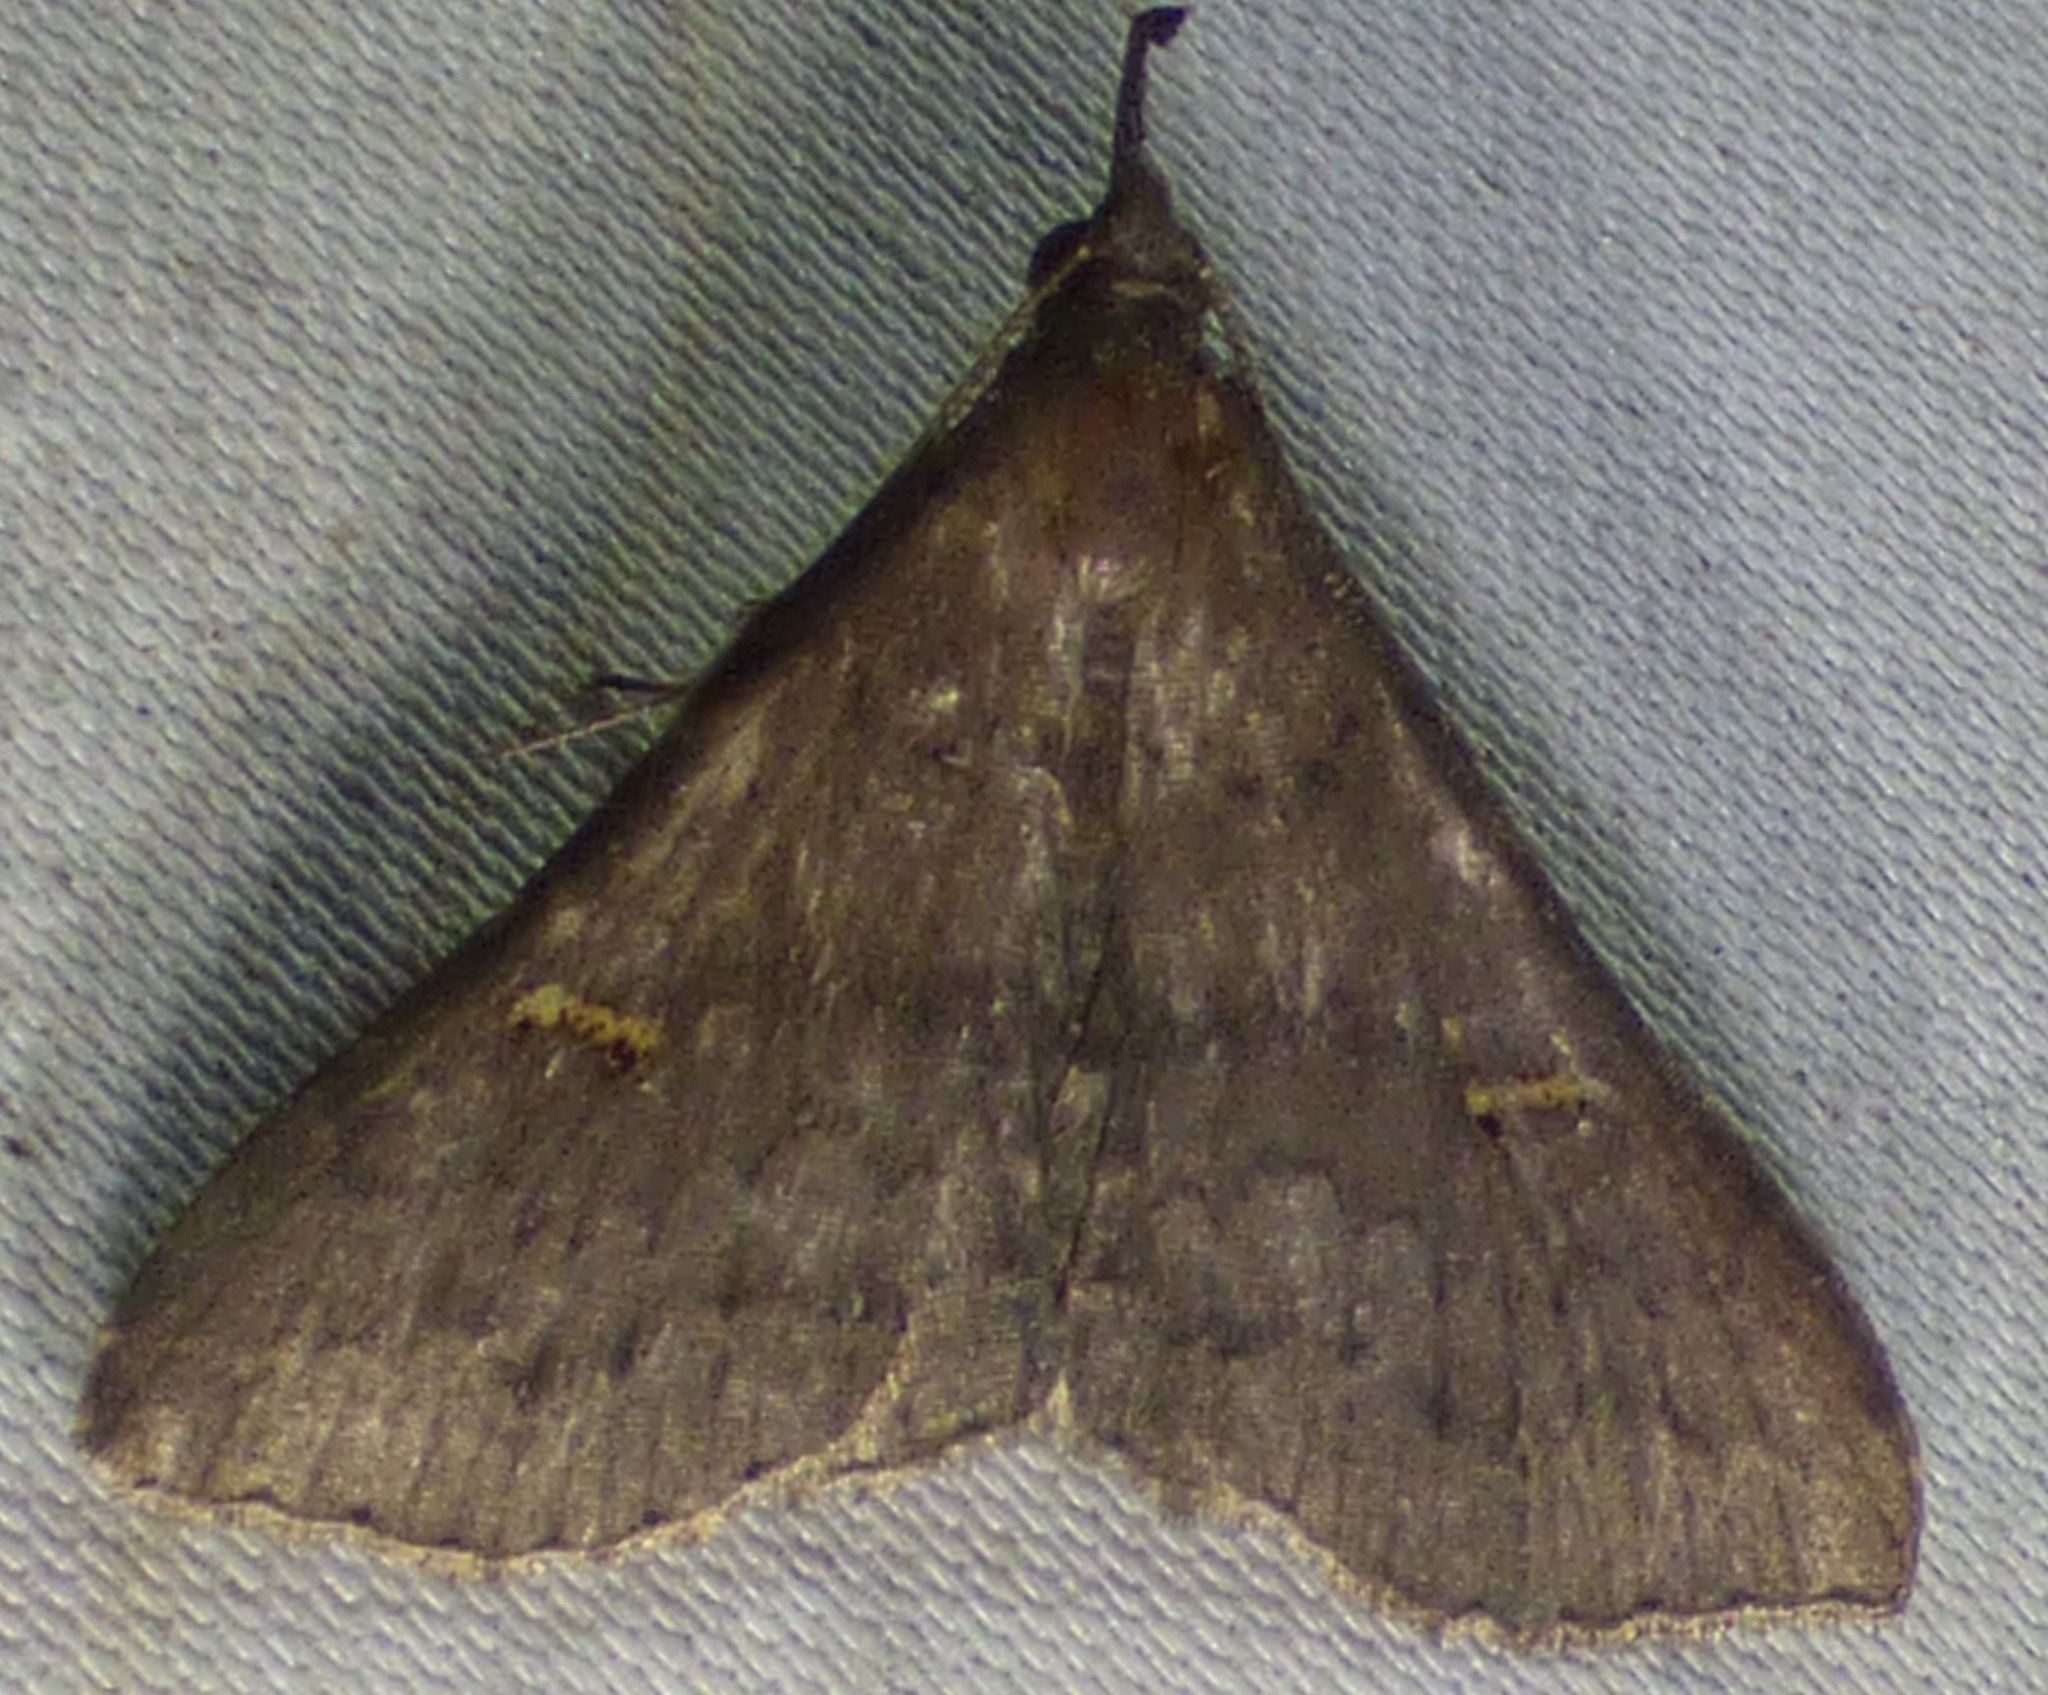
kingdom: Animalia
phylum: Arthropoda
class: Insecta
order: Lepidoptera
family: Erebidae
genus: Renia
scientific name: Renia adspergillus
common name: Speckled renia moth
